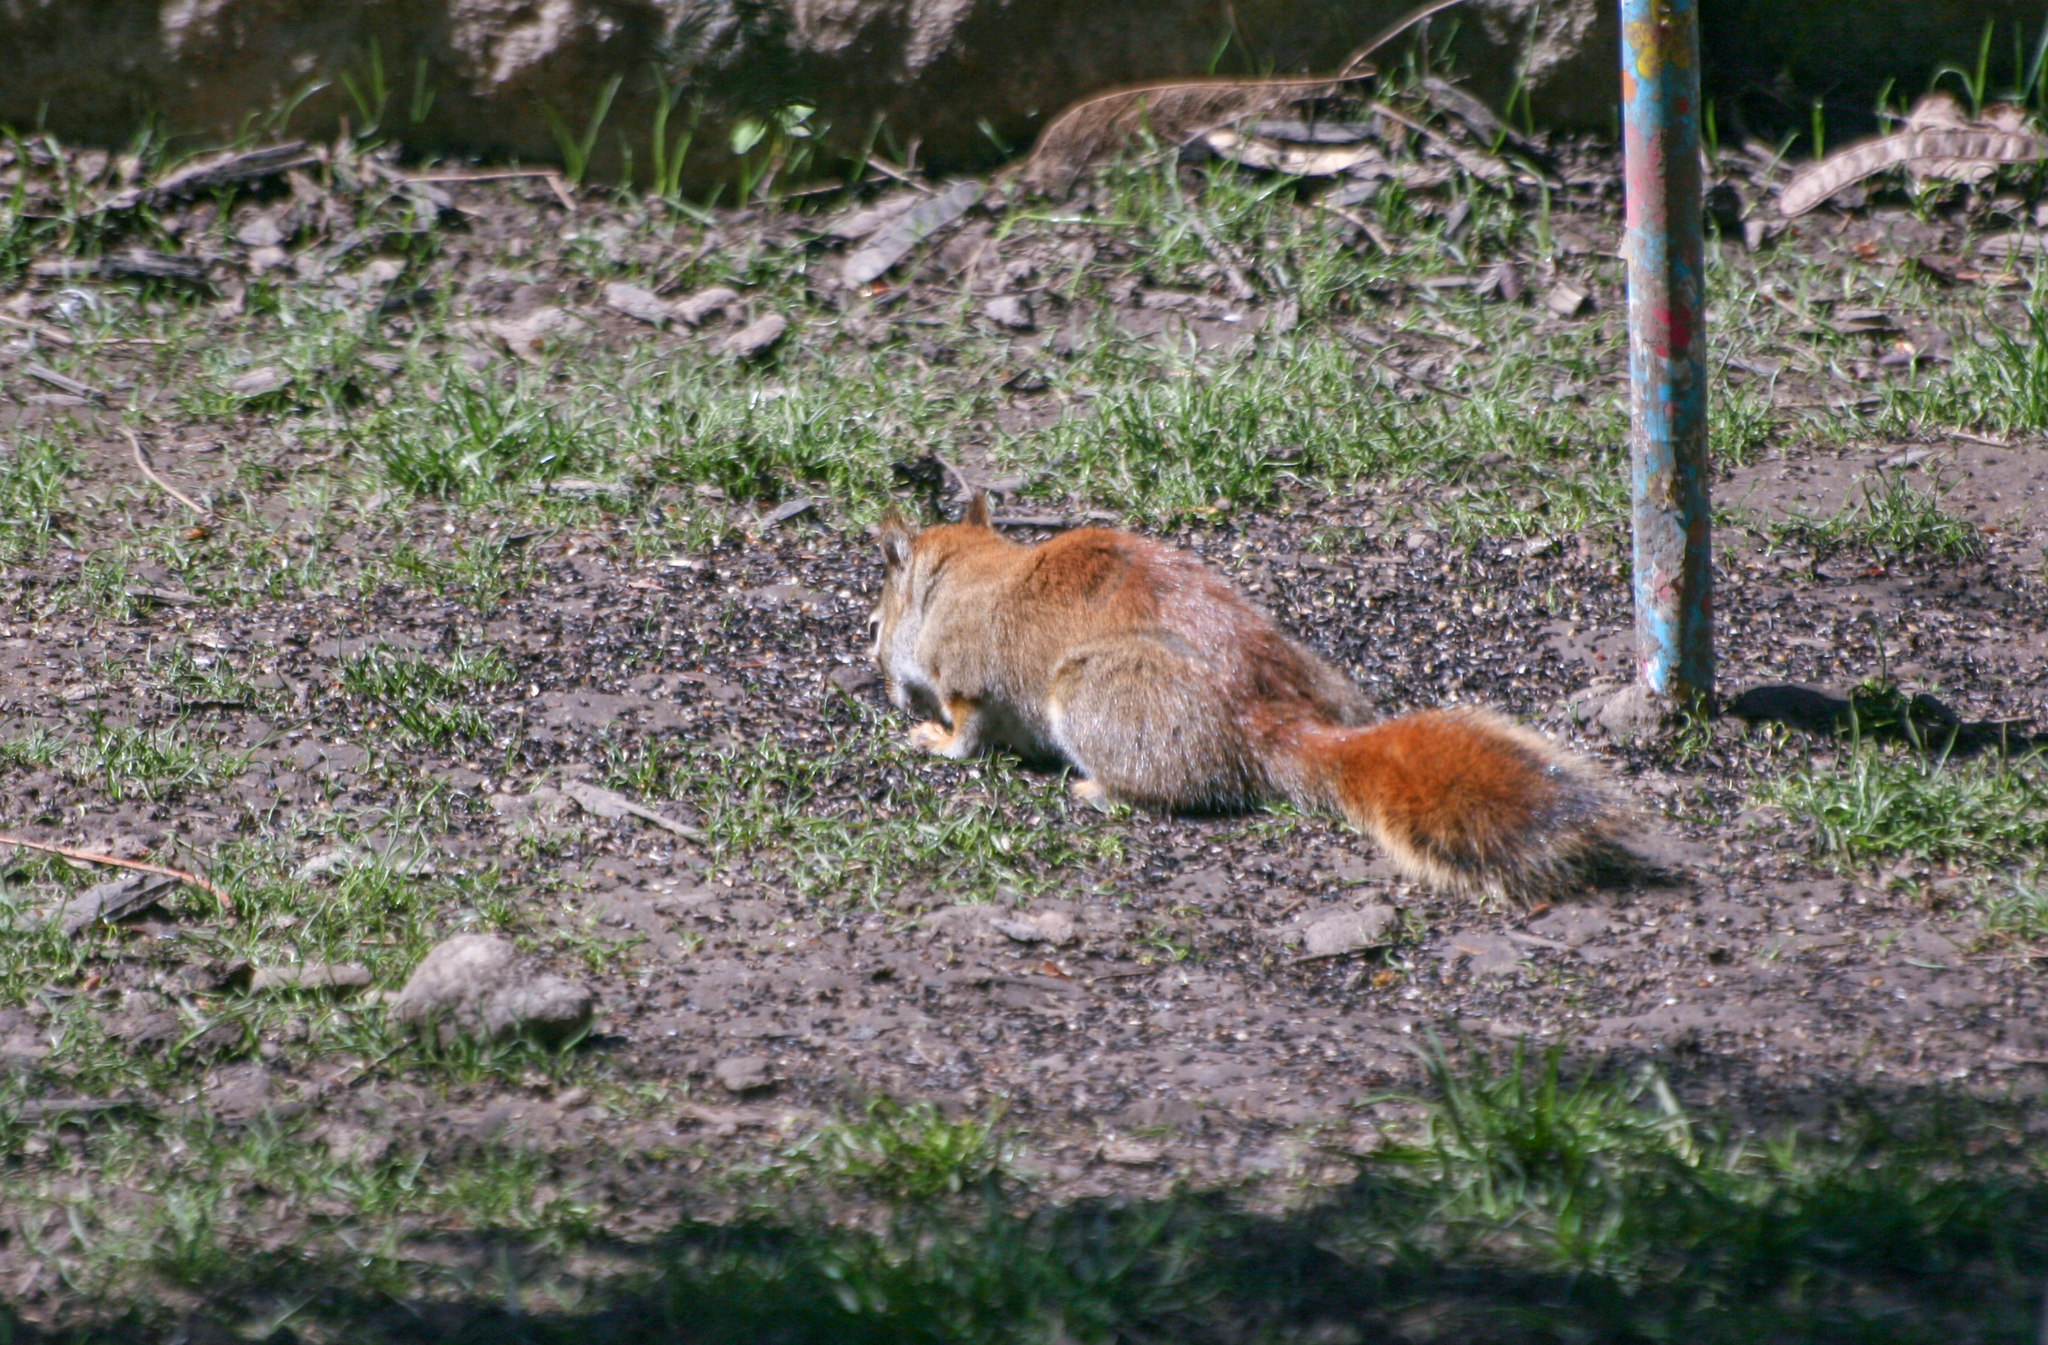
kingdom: Animalia
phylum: Chordata
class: Mammalia
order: Rodentia
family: Sciuridae
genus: Tamiasciurus
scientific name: Tamiasciurus hudsonicus
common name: Red squirrel
